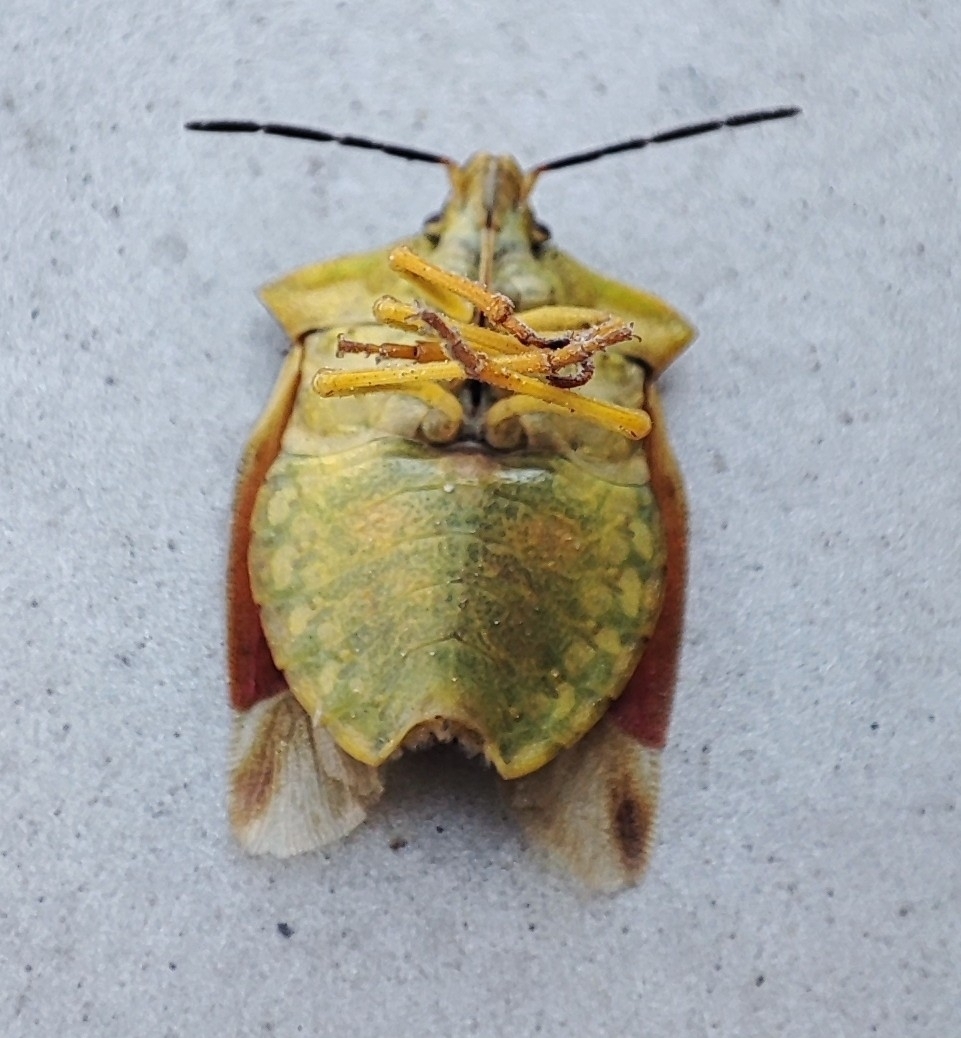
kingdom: Animalia
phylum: Arthropoda
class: Insecta
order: Hemiptera
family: Pentatomidae
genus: Carpocoris
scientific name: Carpocoris fuscispinus
